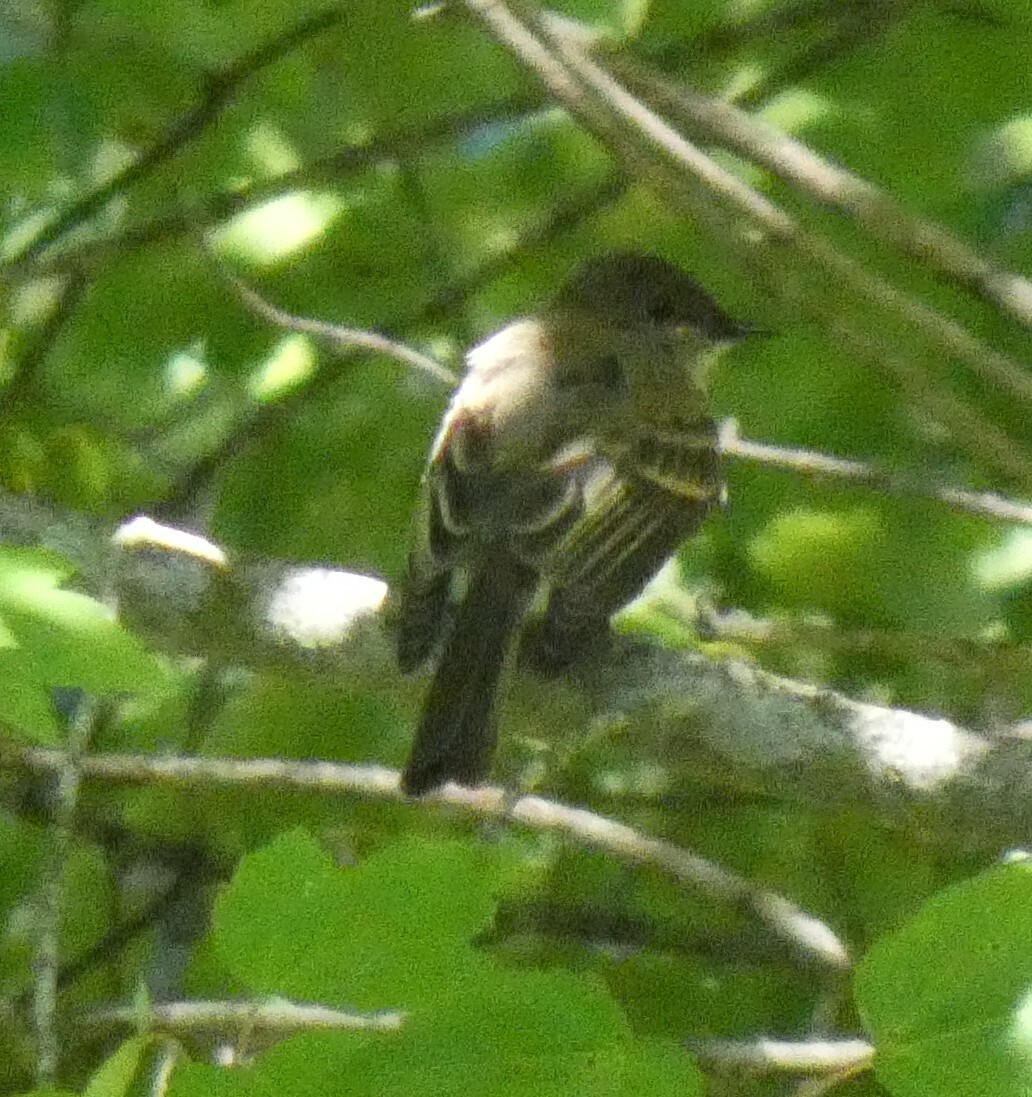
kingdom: Animalia
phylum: Chordata
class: Aves
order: Passeriformes
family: Tyrannidae
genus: Sayornis
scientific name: Sayornis phoebe
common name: Eastern phoebe
